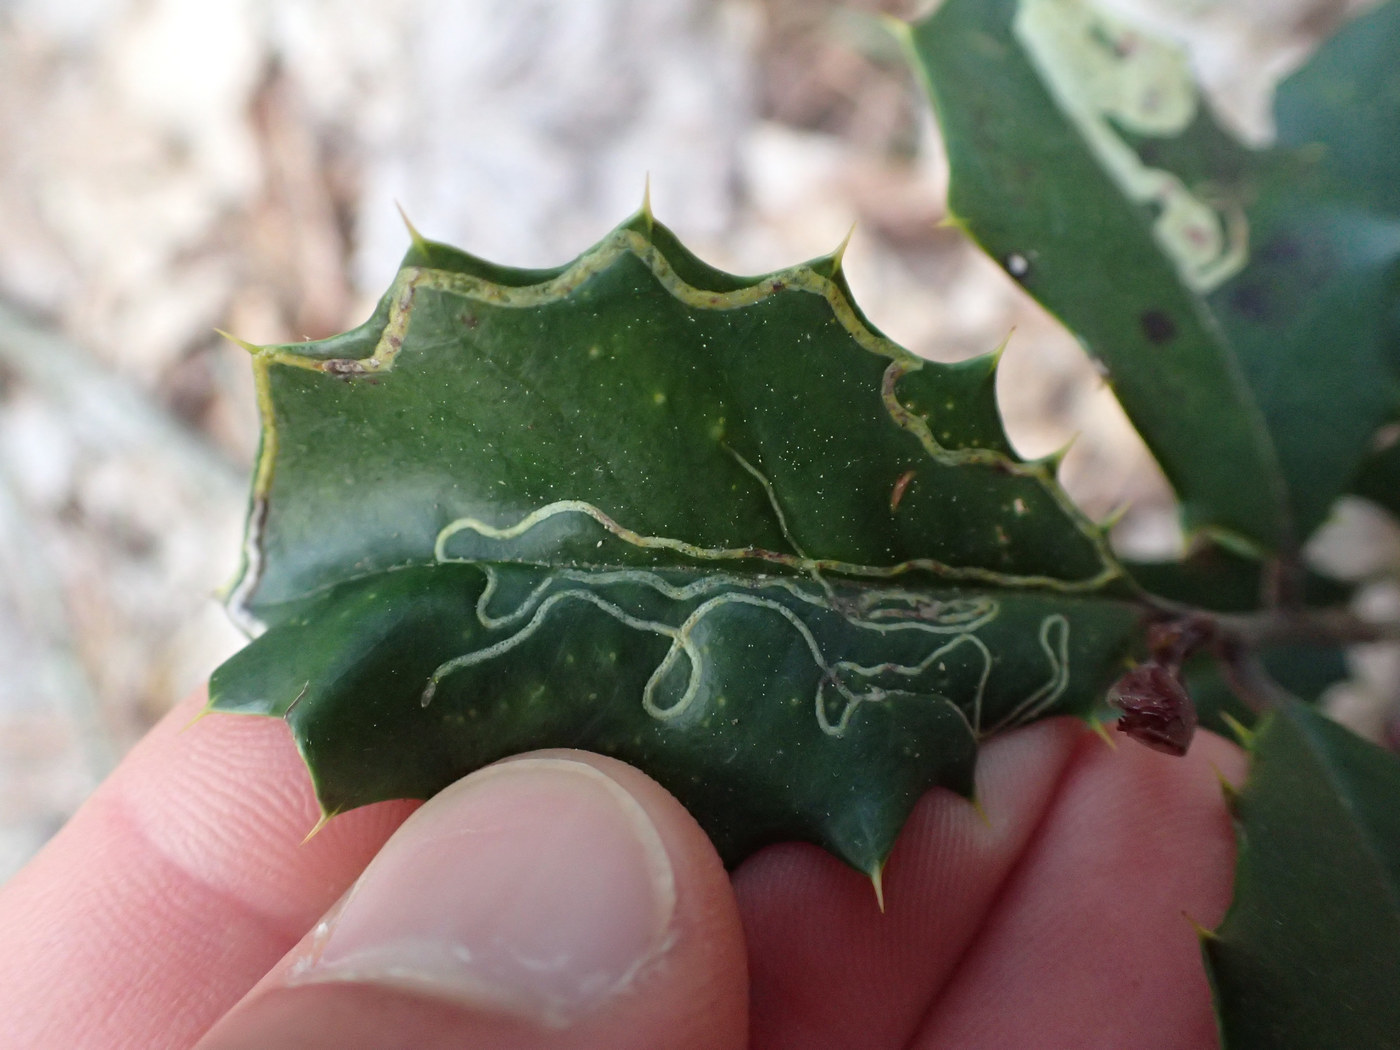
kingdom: Animalia
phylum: Arthropoda
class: Insecta
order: Diptera
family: Agromyzidae
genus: Phytomyza
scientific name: Phytomyza opacae
